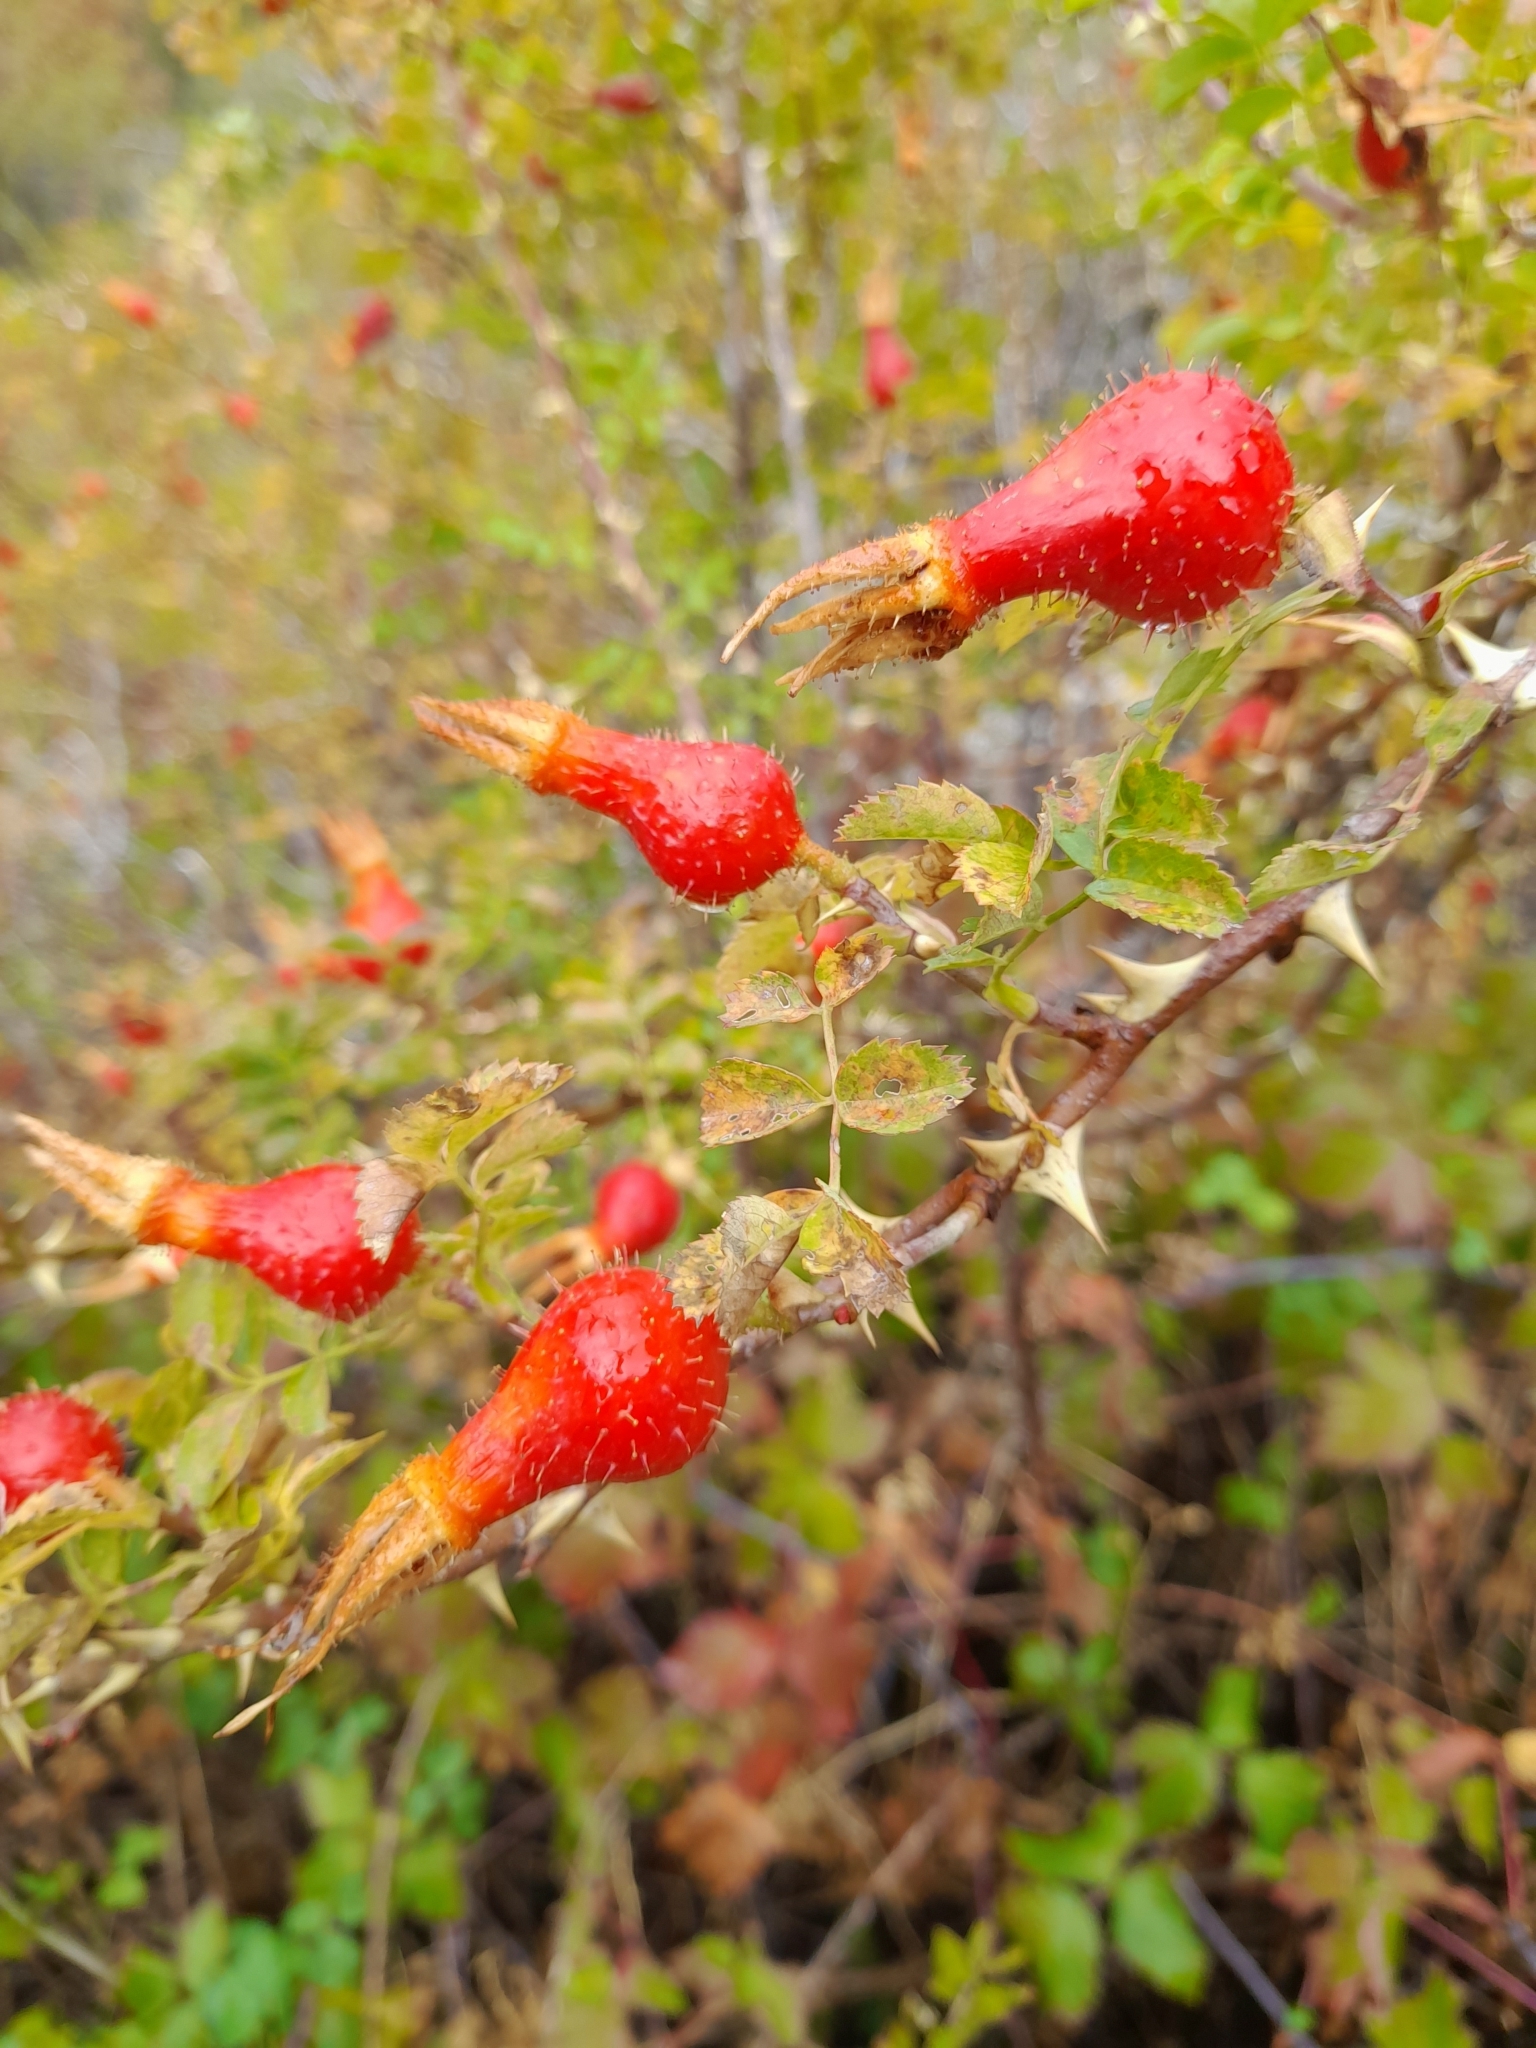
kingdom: Plantae
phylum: Tracheophyta
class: Magnoliopsida
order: Rosales
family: Rosaceae
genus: Rosa
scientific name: Rosa webbiana
